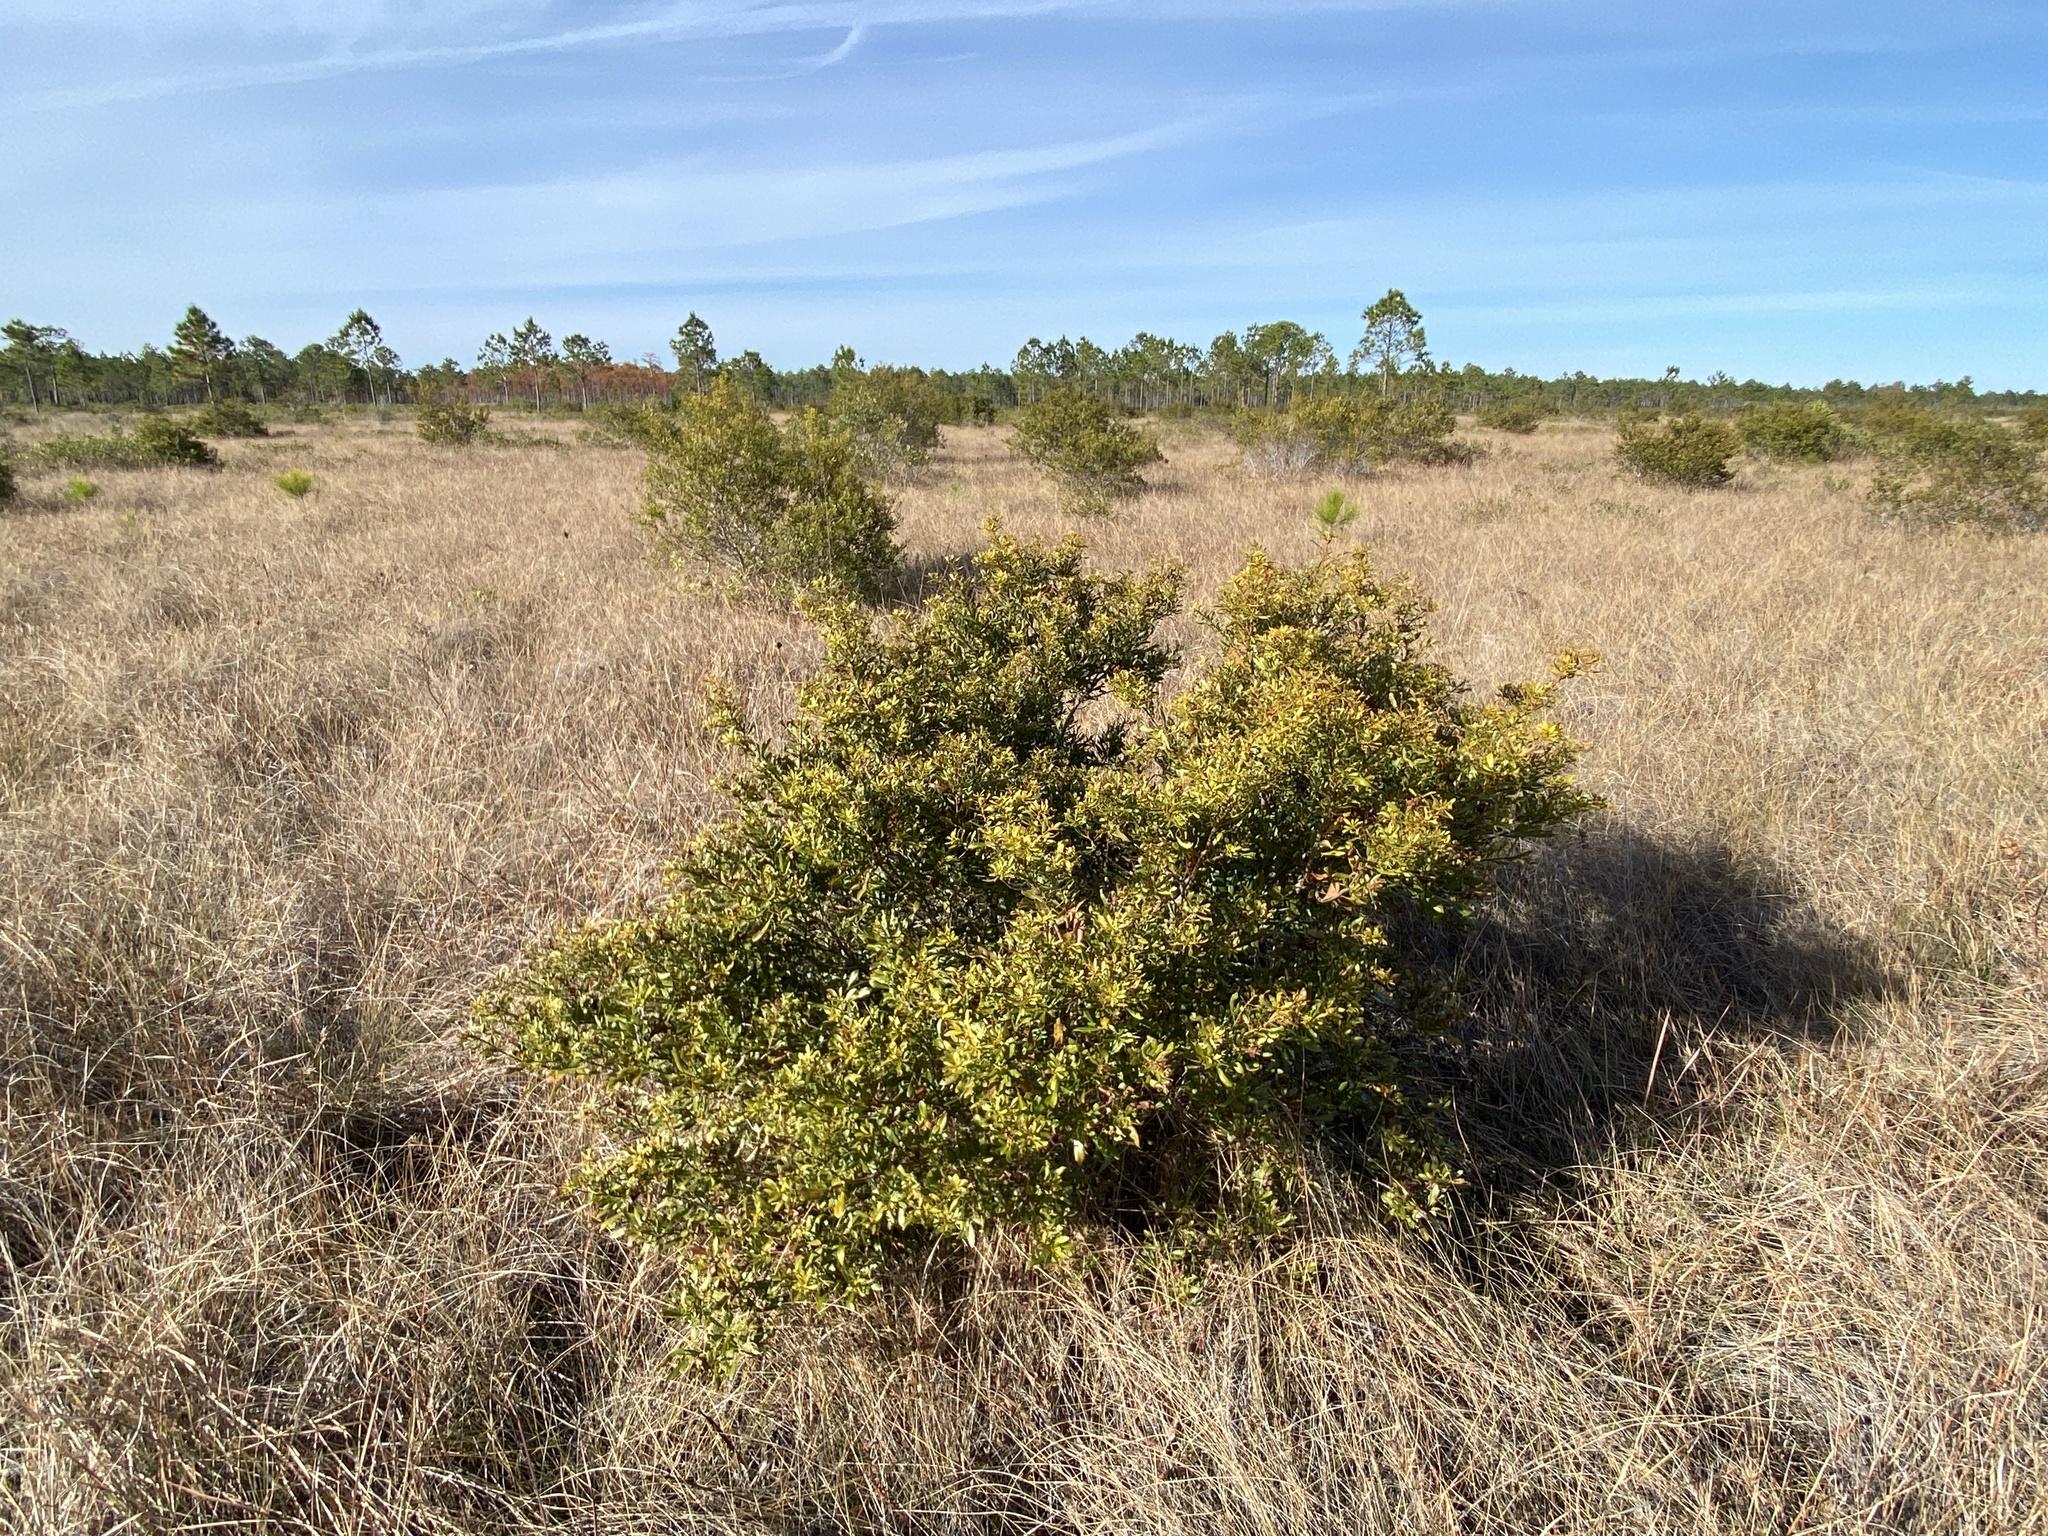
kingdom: Plantae
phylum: Tracheophyta
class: Magnoliopsida
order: Fagales
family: Myricaceae
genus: Morella
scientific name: Morella cerifera
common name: Wax myrtle
